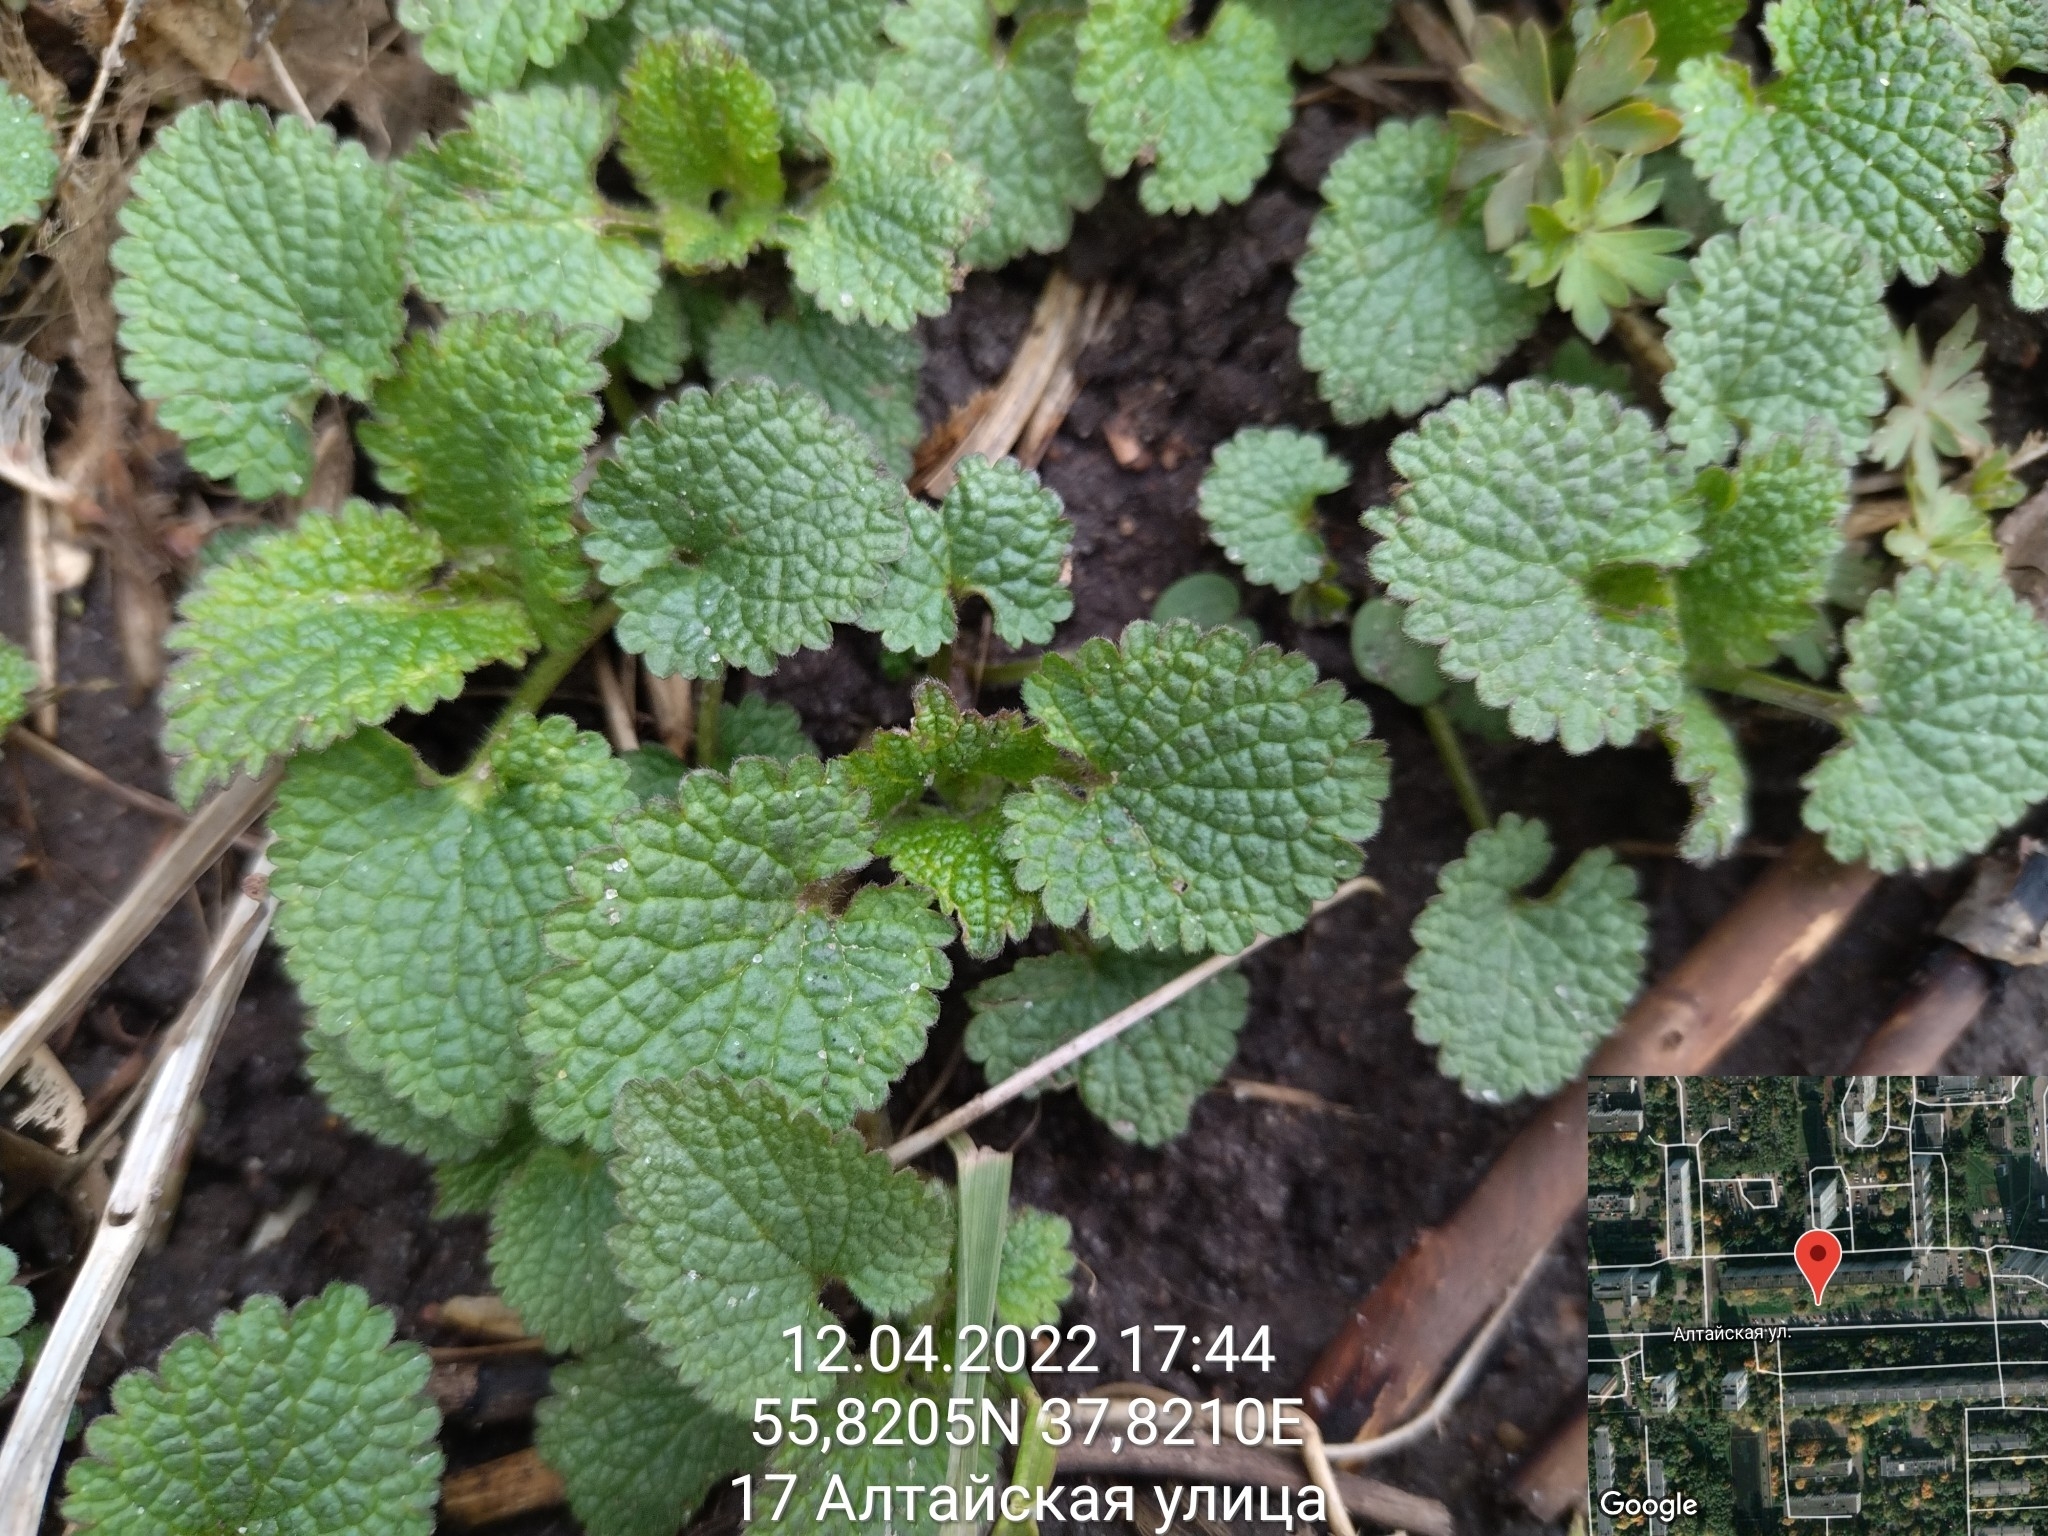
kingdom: Plantae
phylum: Tracheophyta
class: Magnoliopsida
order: Lamiales
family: Lamiaceae
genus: Lamium
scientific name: Lamium album
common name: White dead-nettle
